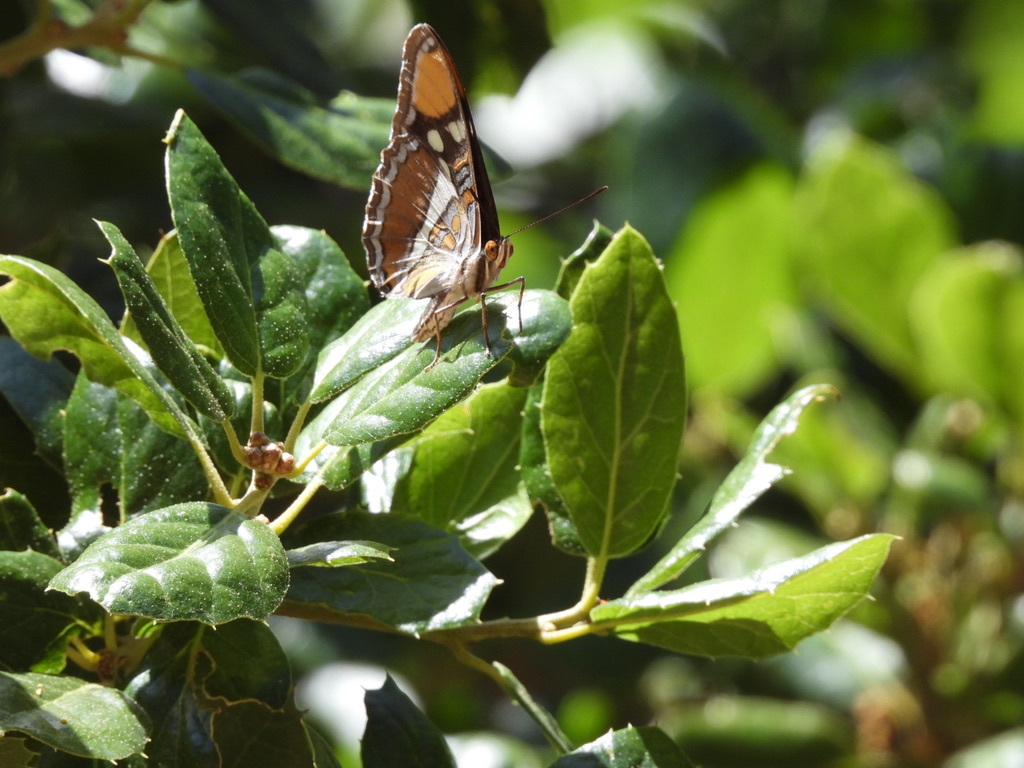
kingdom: Animalia
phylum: Arthropoda
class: Insecta
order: Lepidoptera
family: Nymphalidae
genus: Limenitis
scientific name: Limenitis bredowii
